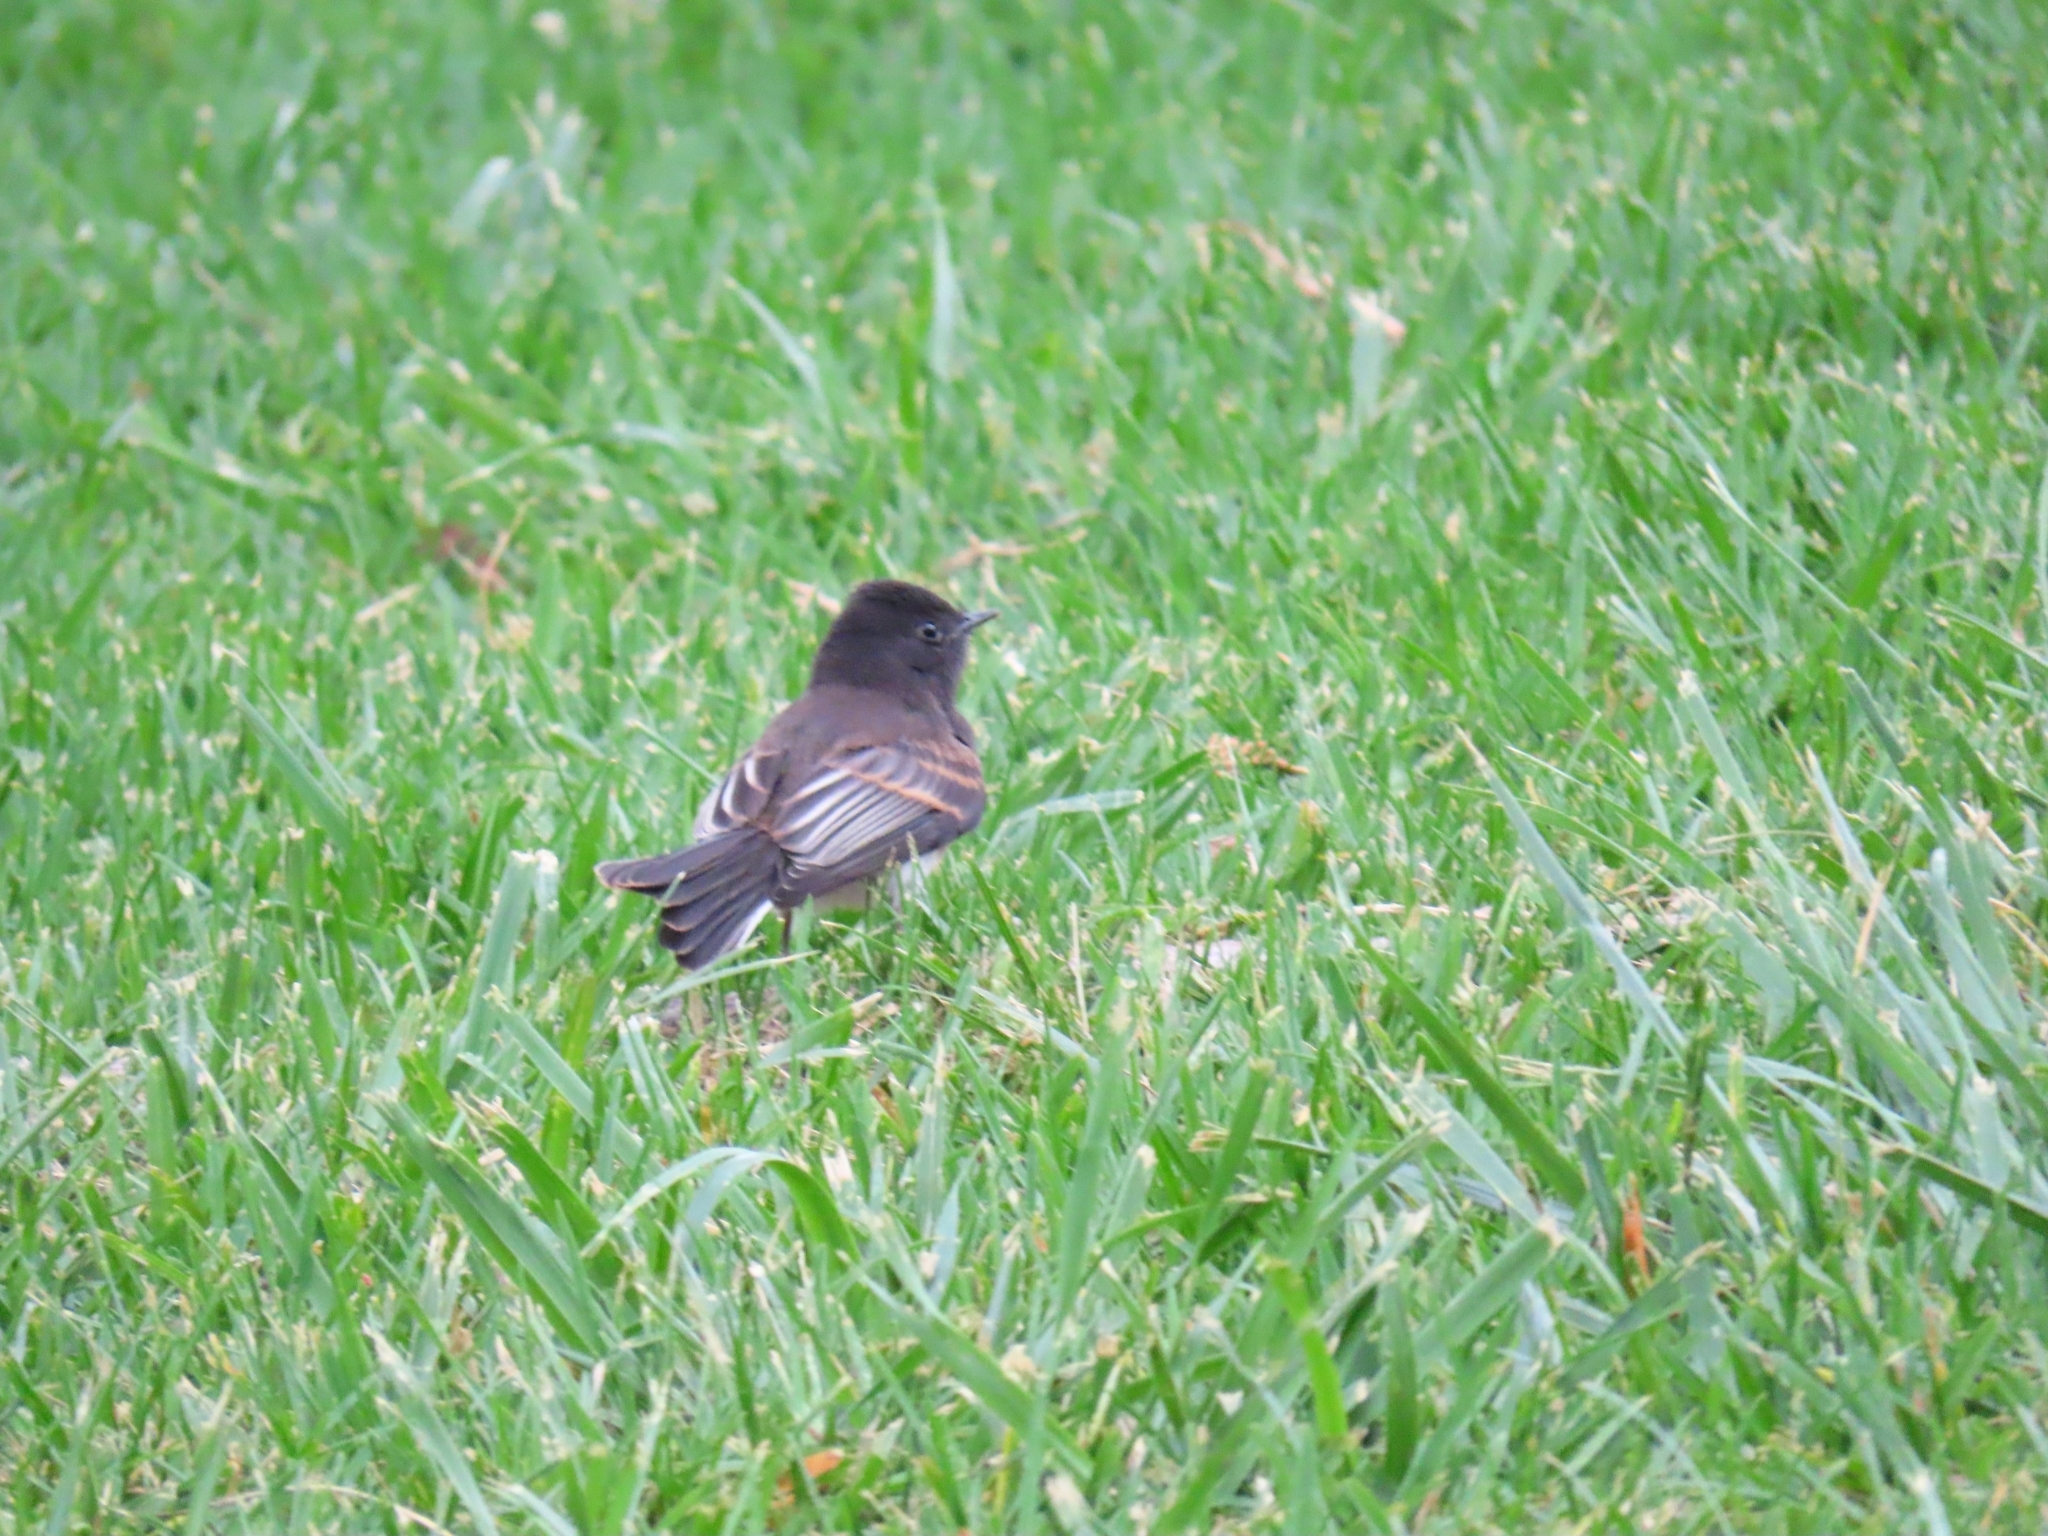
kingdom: Animalia
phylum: Chordata
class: Aves
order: Passeriformes
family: Tyrannidae
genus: Sayornis
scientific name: Sayornis nigricans
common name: Black phoebe
